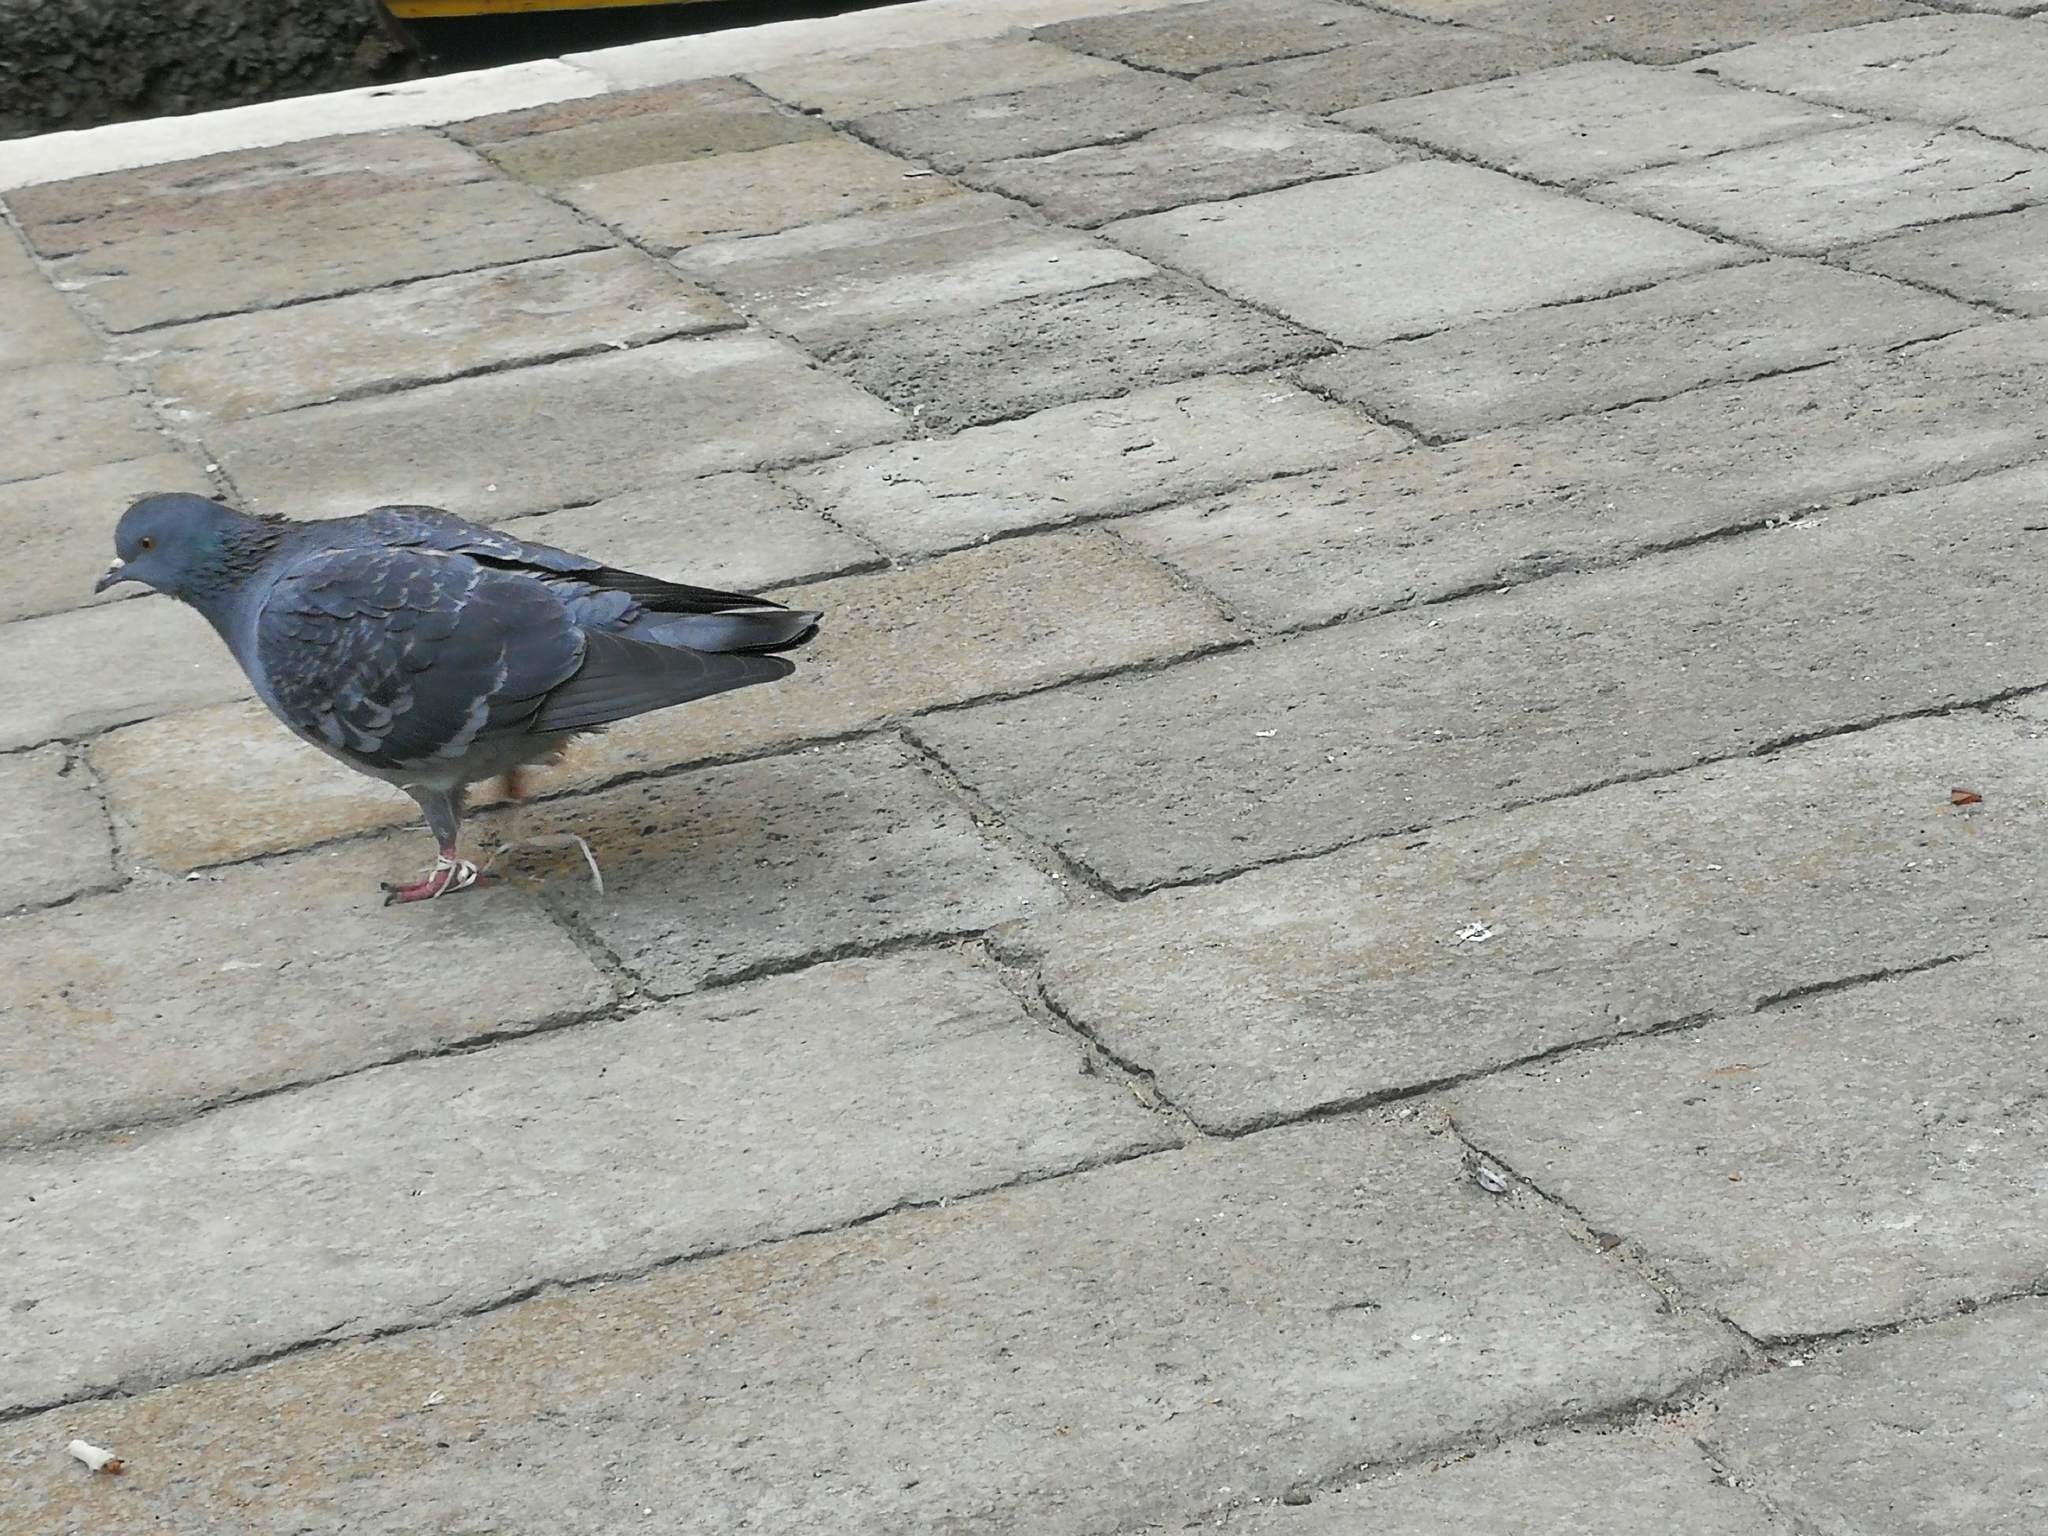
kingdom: Animalia
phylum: Chordata
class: Aves
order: Columbiformes
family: Columbidae
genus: Columba
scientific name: Columba livia
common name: Rock pigeon
